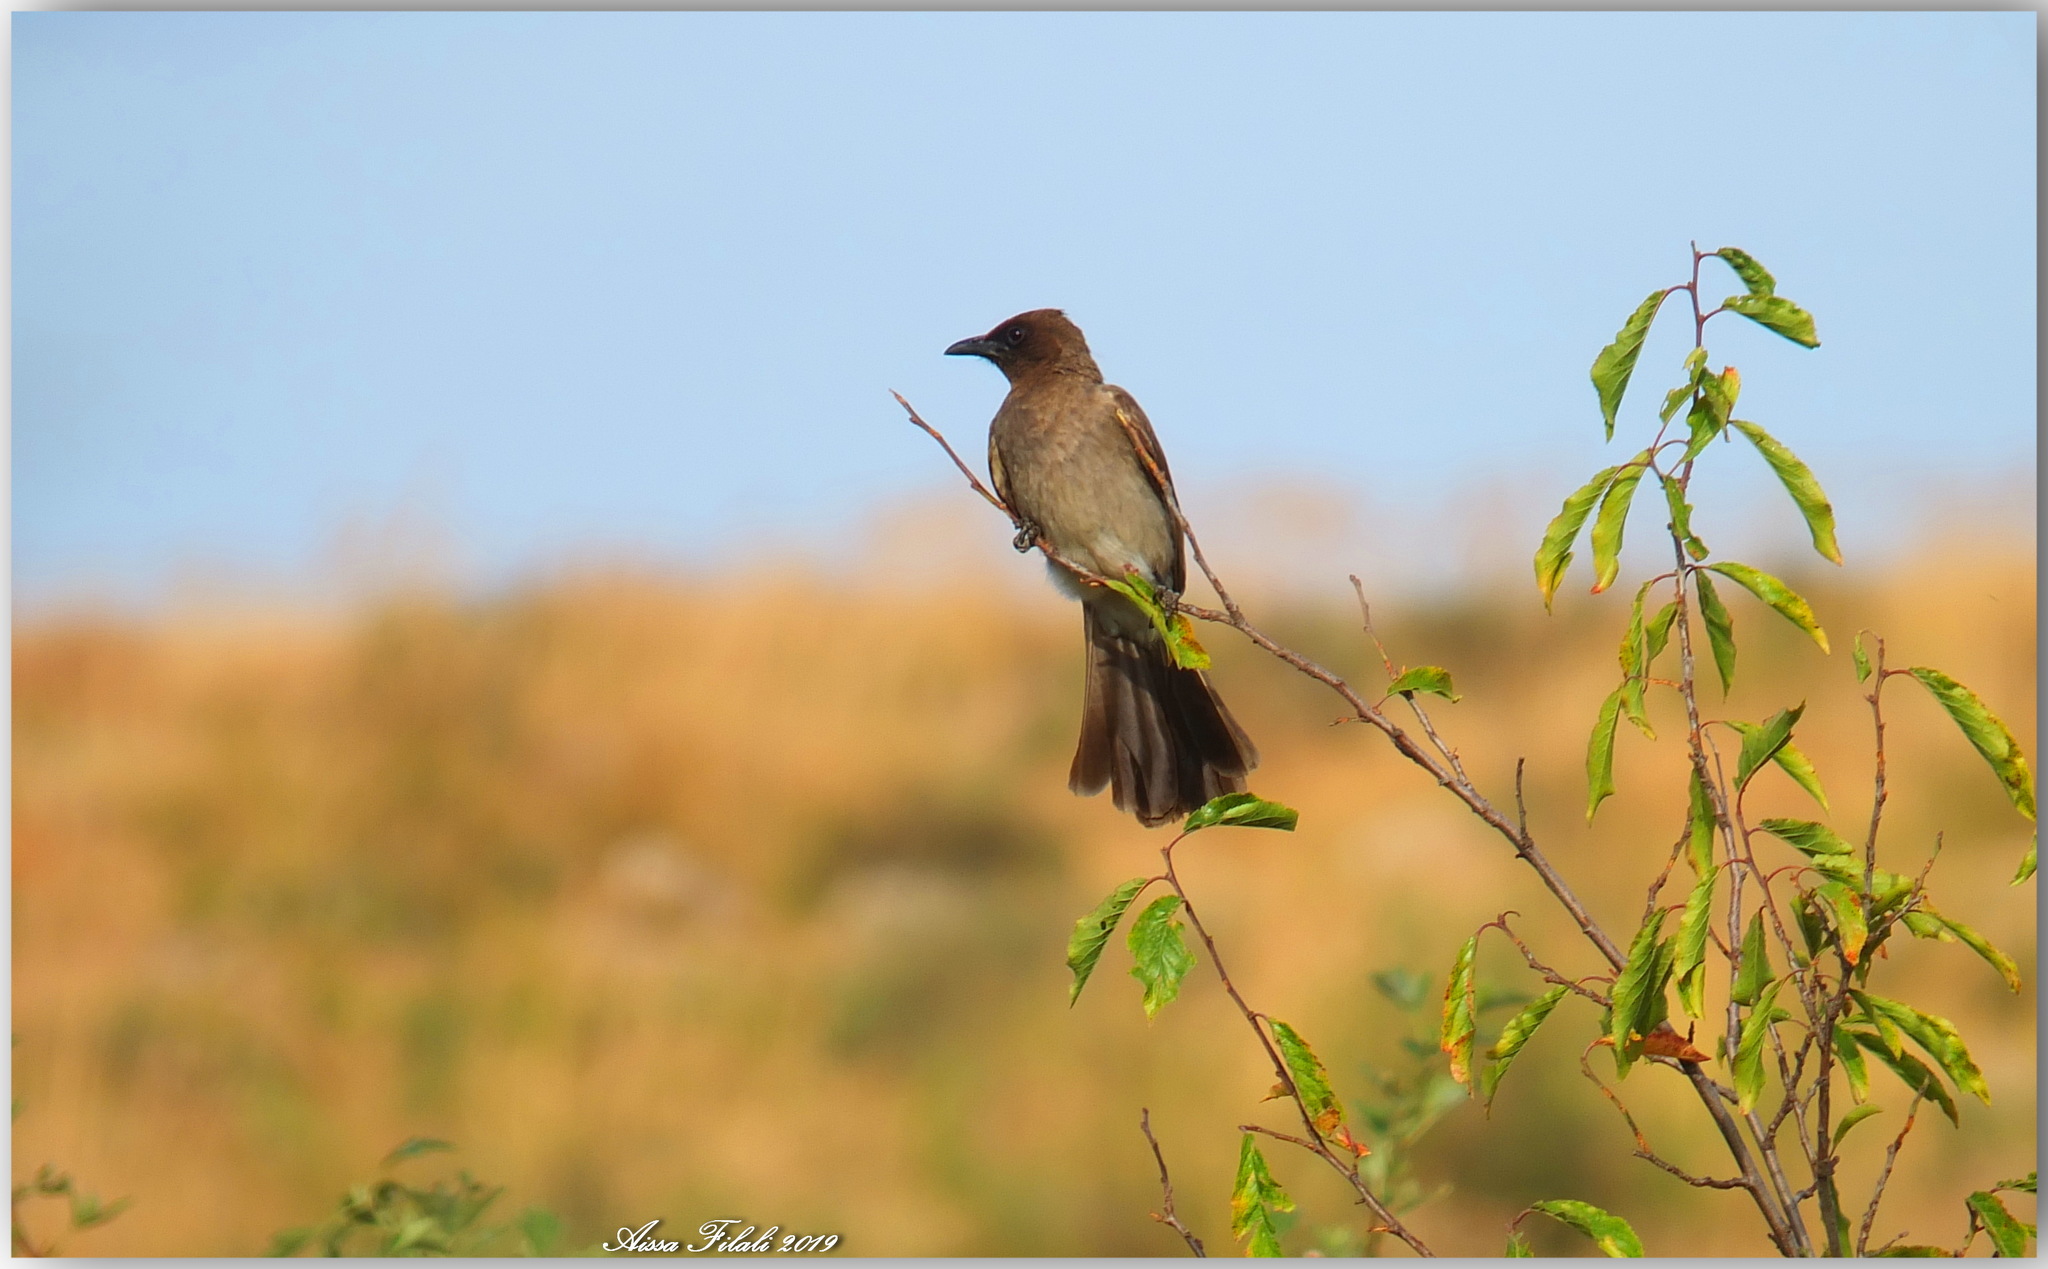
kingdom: Animalia
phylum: Chordata
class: Aves
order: Passeriformes
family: Pycnonotidae
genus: Pycnonotus
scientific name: Pycnonotus barbatus
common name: Common bulbul
